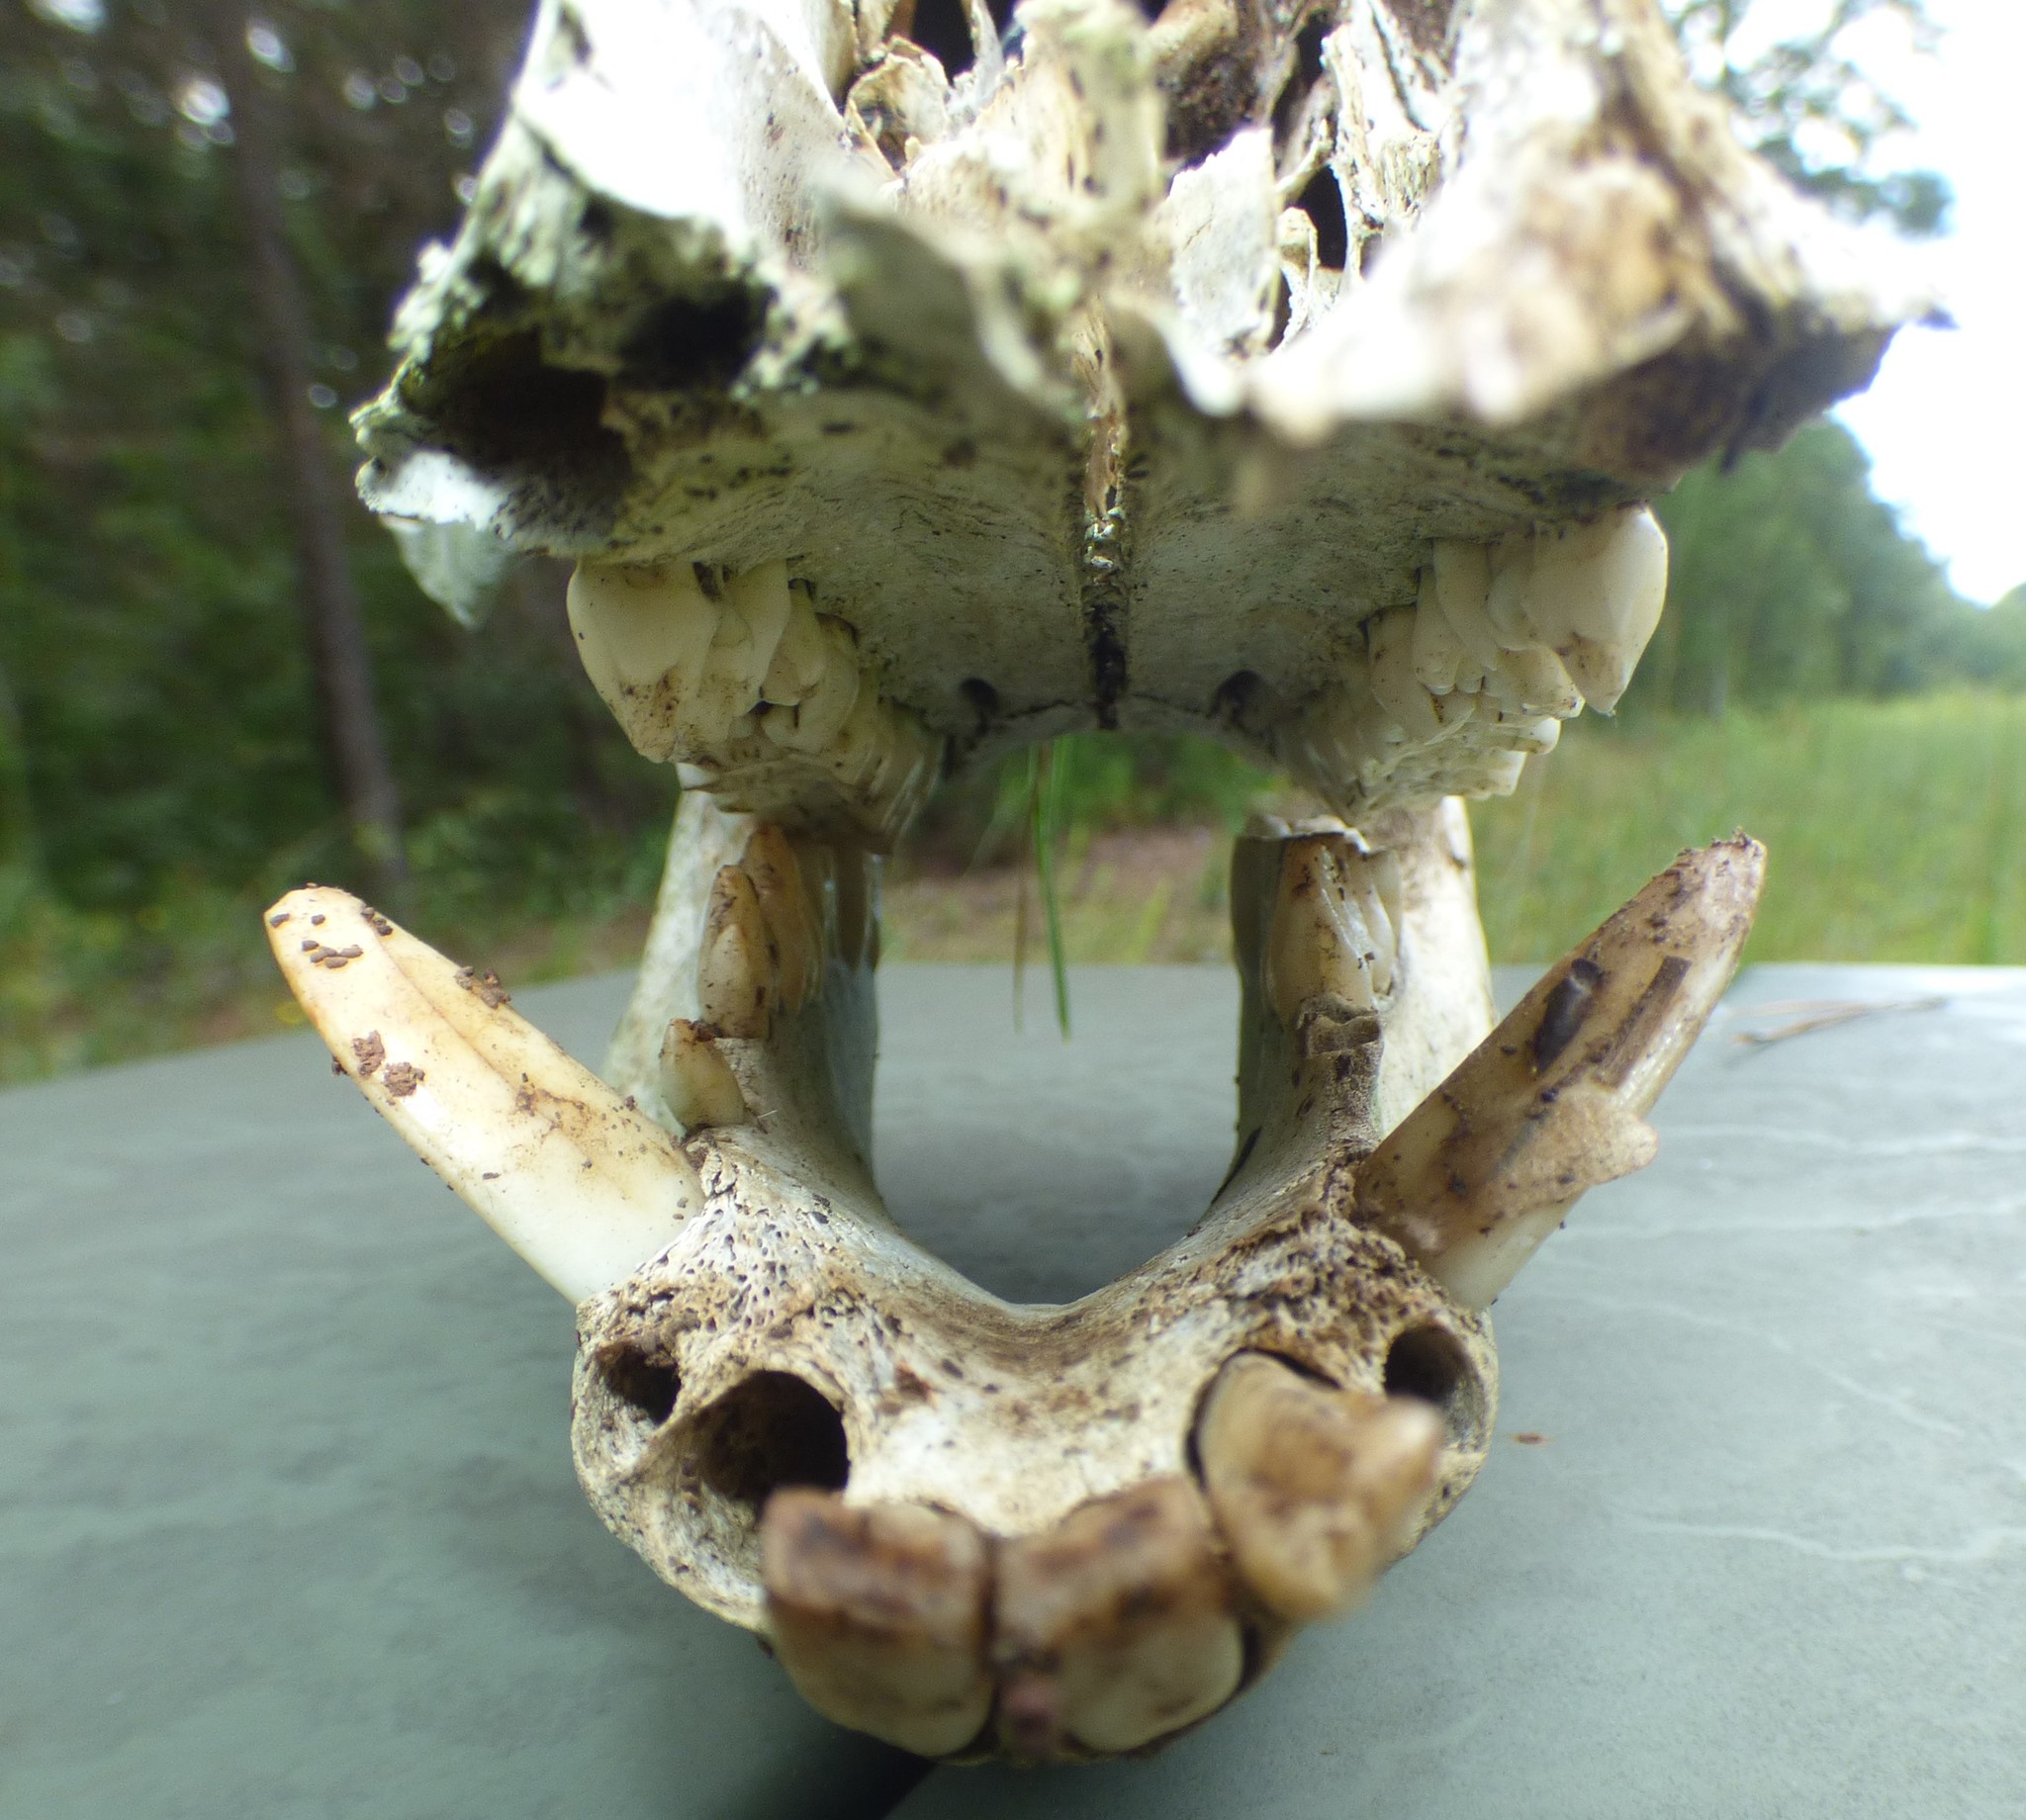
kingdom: Animalia
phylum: Chordata
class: Mammalia
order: Artiodactyla
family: Suidae
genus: Sus
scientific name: Sus scrofa
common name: Wild boar
